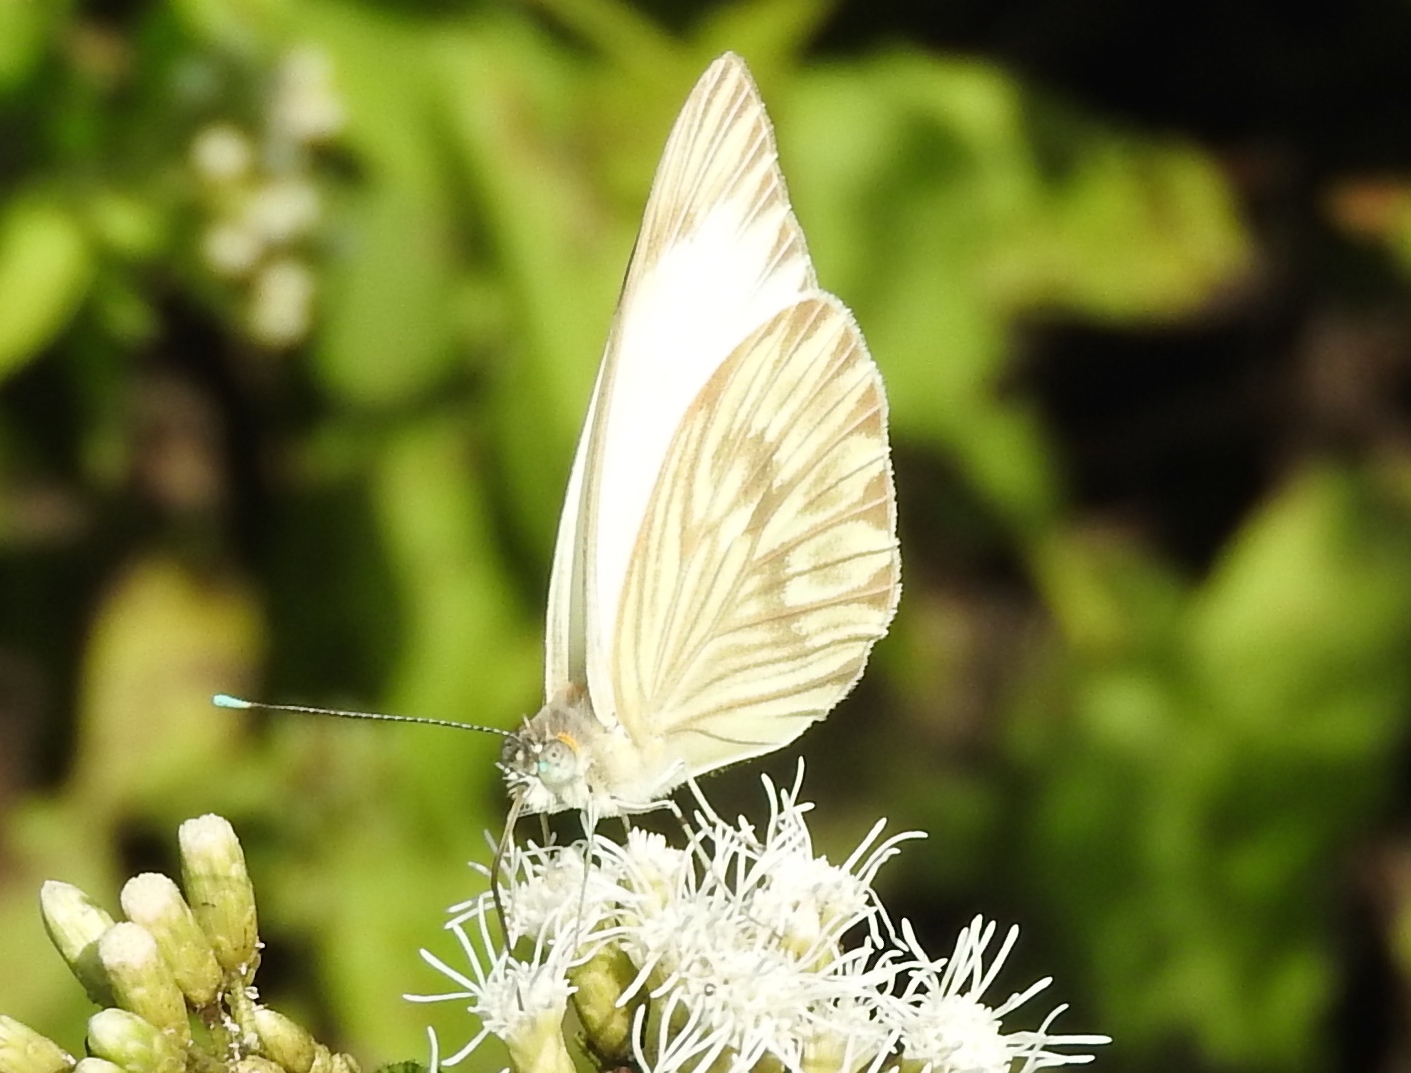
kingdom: Animalia
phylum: Arthropoda
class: Insecta
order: Lepidoptera
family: Pieridae
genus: Ascia
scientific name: Ascia monuste
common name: Great southern white
